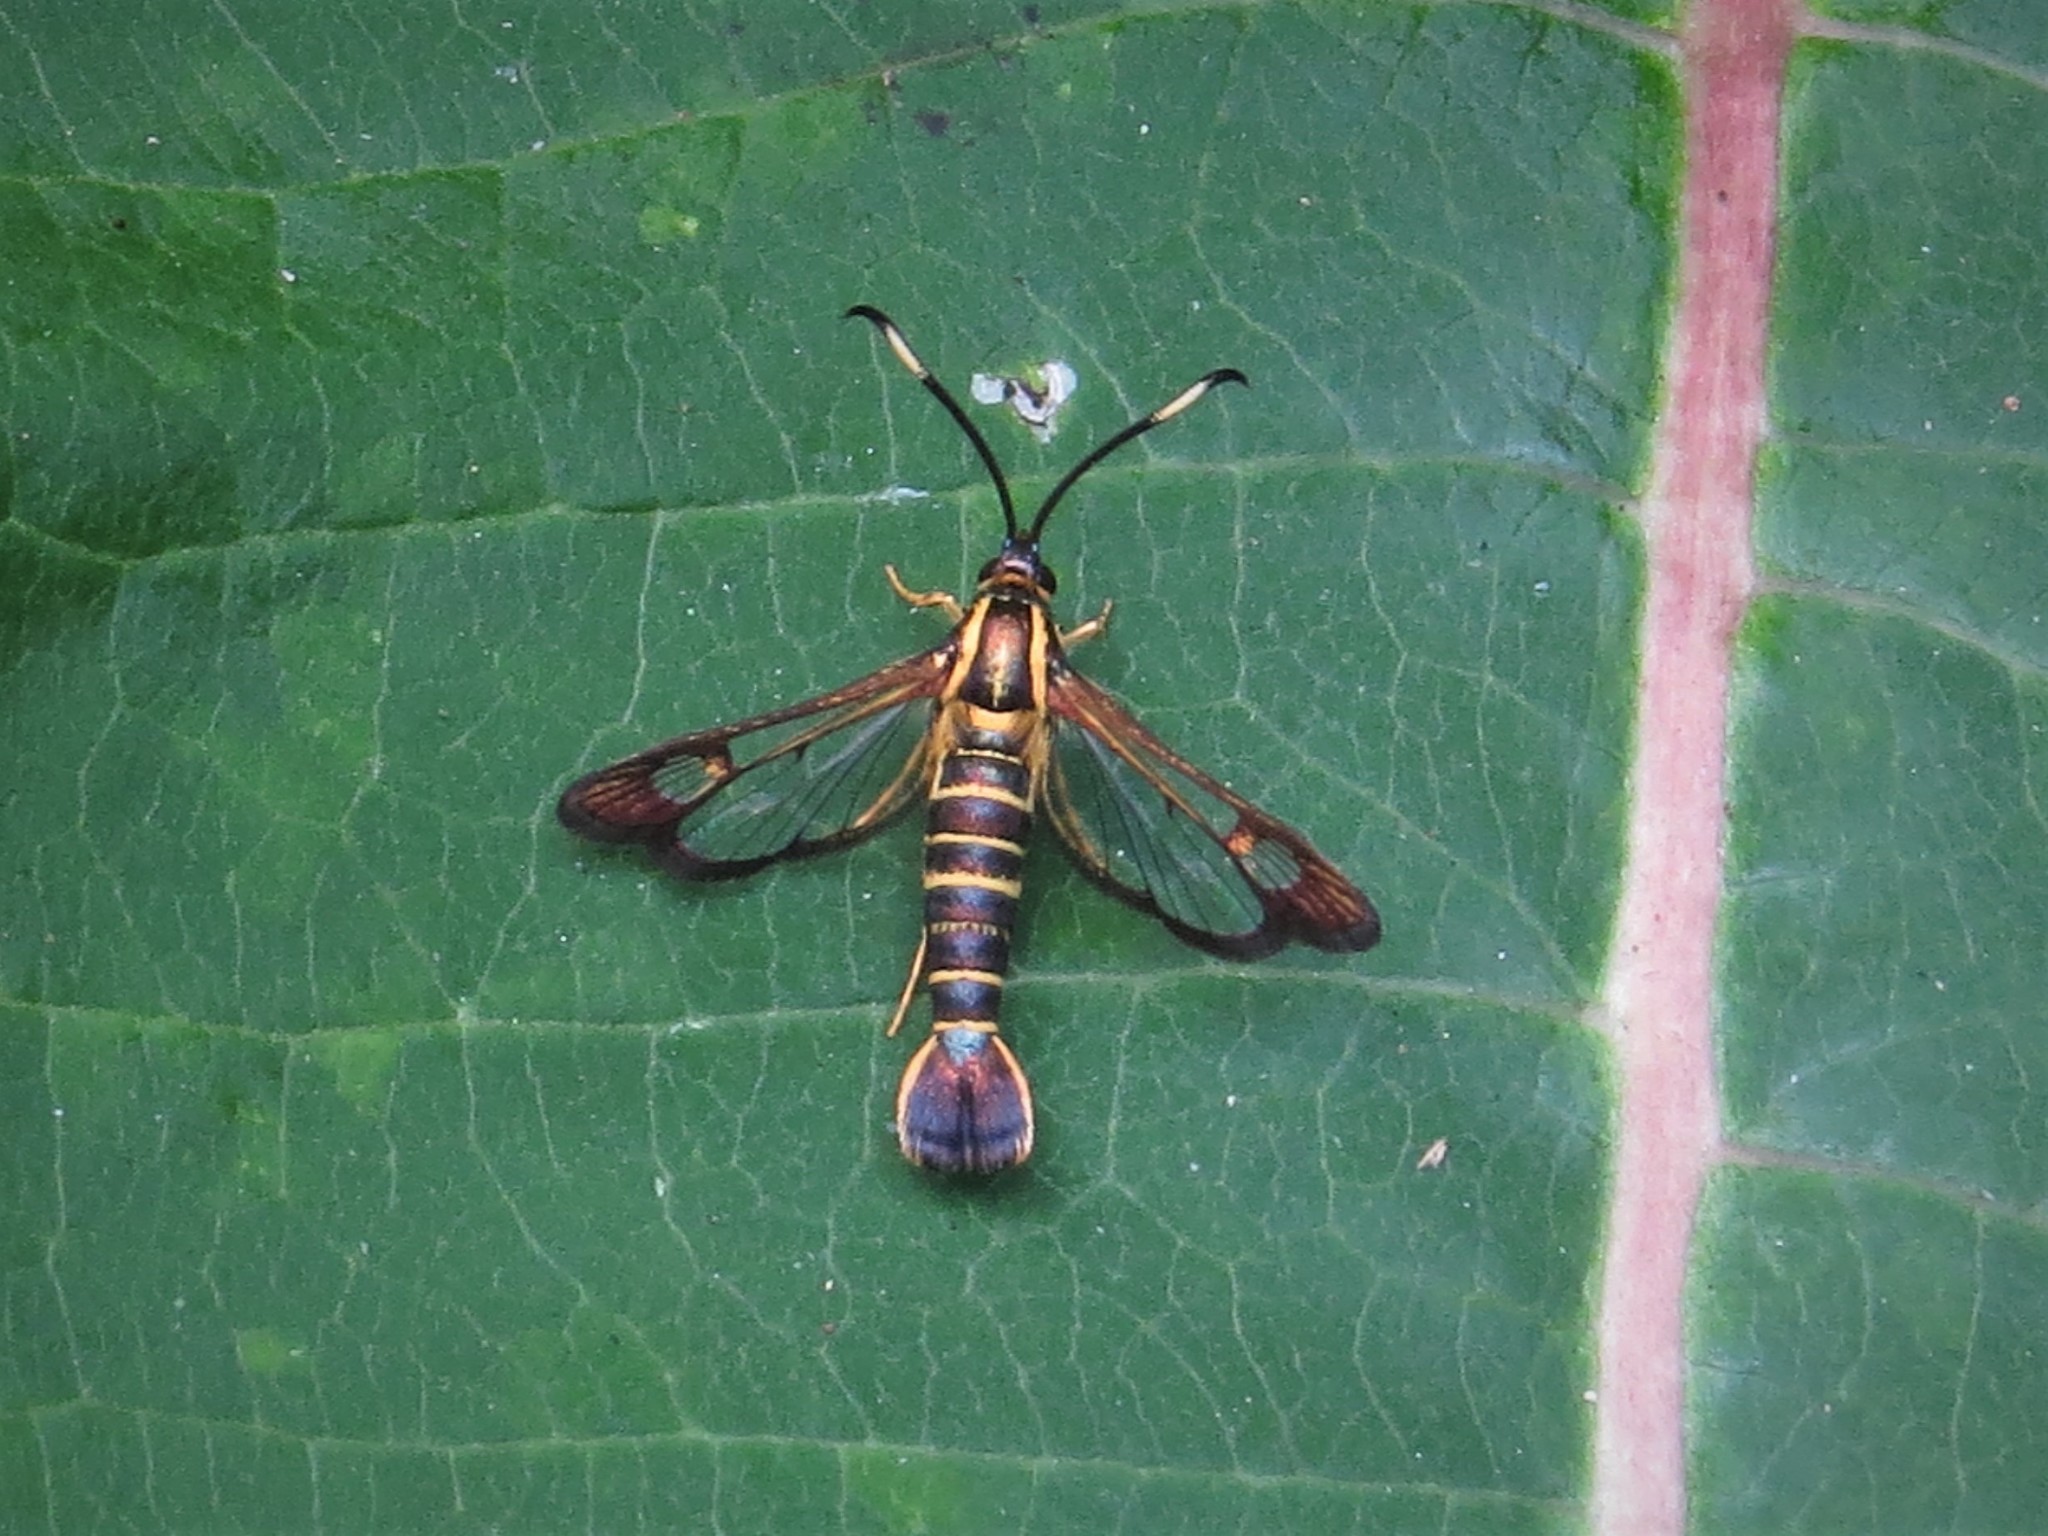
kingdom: Animalia
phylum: Arthropoda
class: Insecta
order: Lepidoptera
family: Sesiidae
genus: Carmenta
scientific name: Carmenta bassiformis
